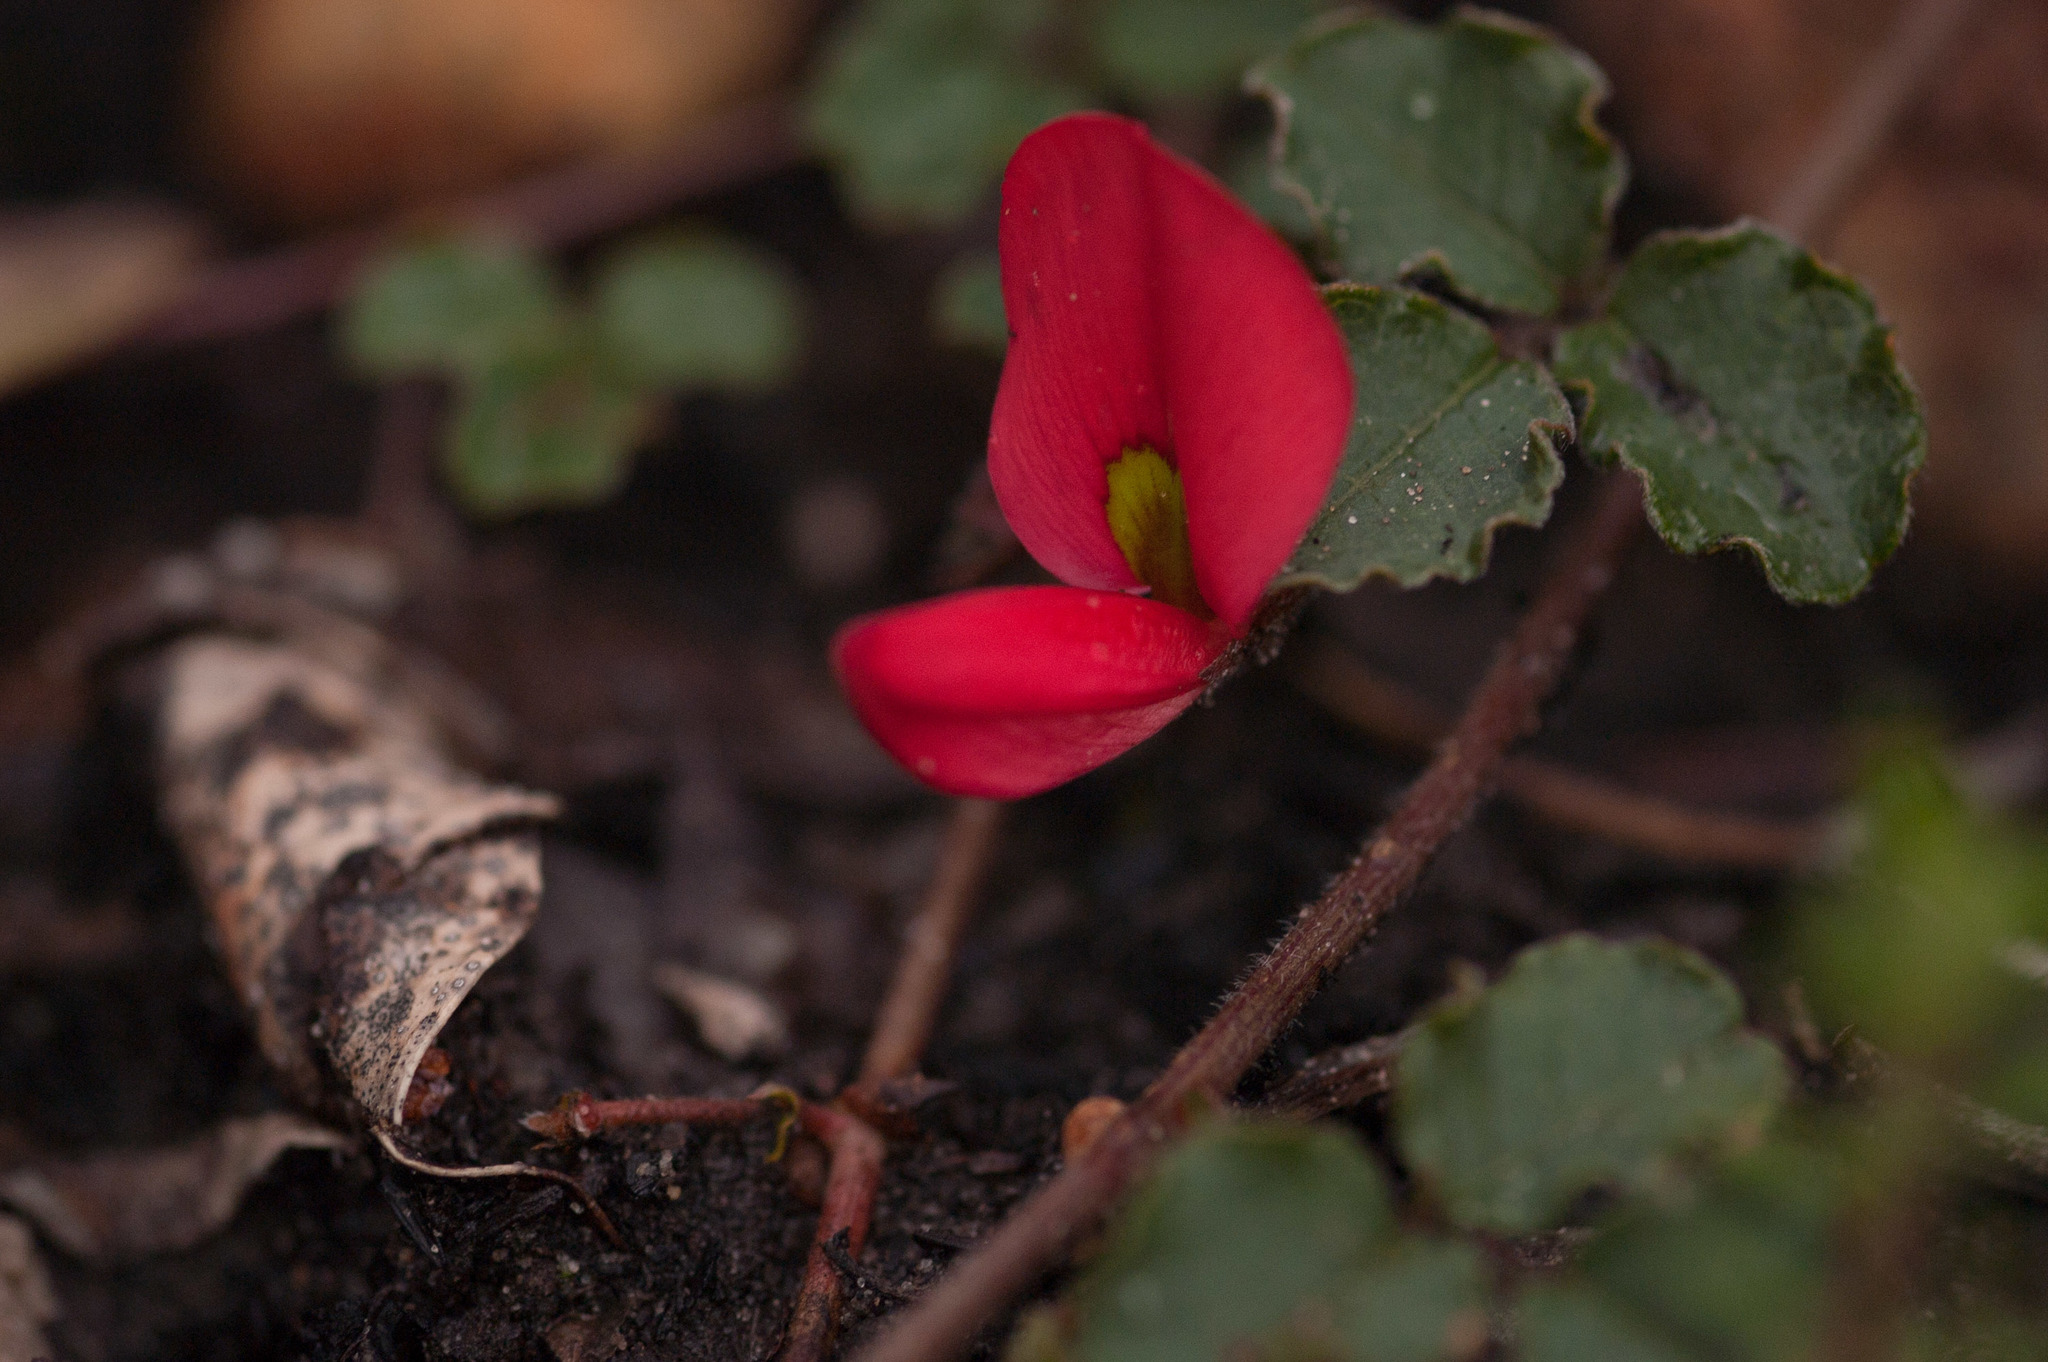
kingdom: Plantae
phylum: Tracheophyta
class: Magnoliopsida
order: Fabales
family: Fabaceae
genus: Kennedia
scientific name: Kennedia prostrata
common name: Running-postman
